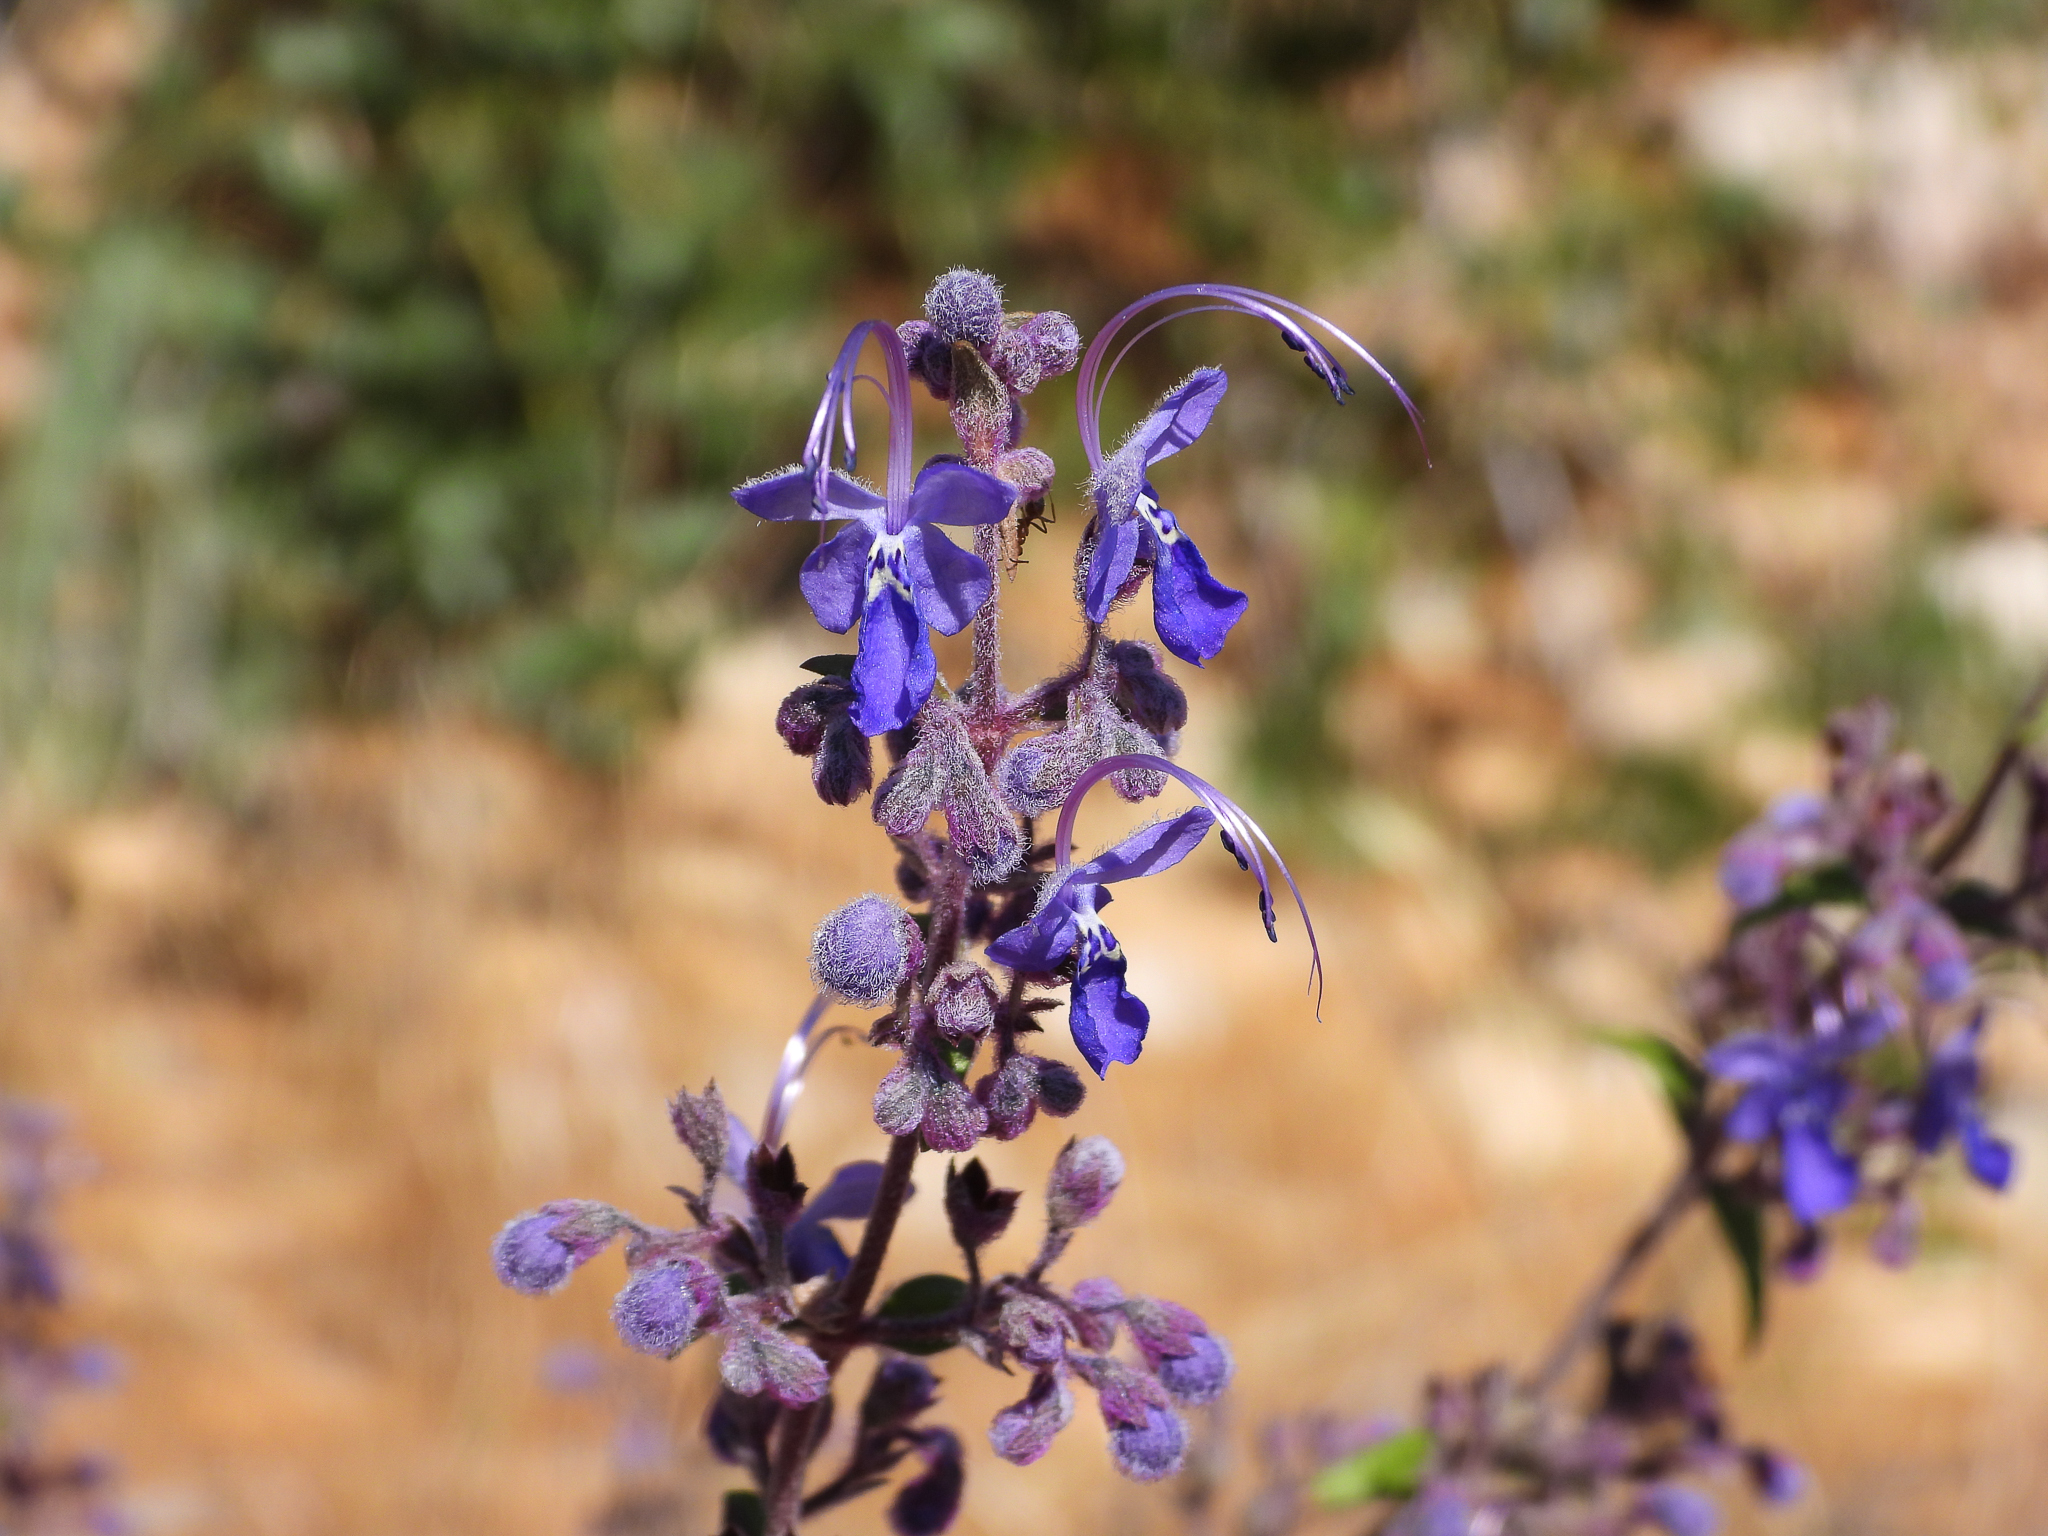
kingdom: Plantae
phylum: Tracheophyta
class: Magnoliopsida
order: Lamiales
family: Lamiaceae
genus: Trichostema
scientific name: Trichostema parishii
